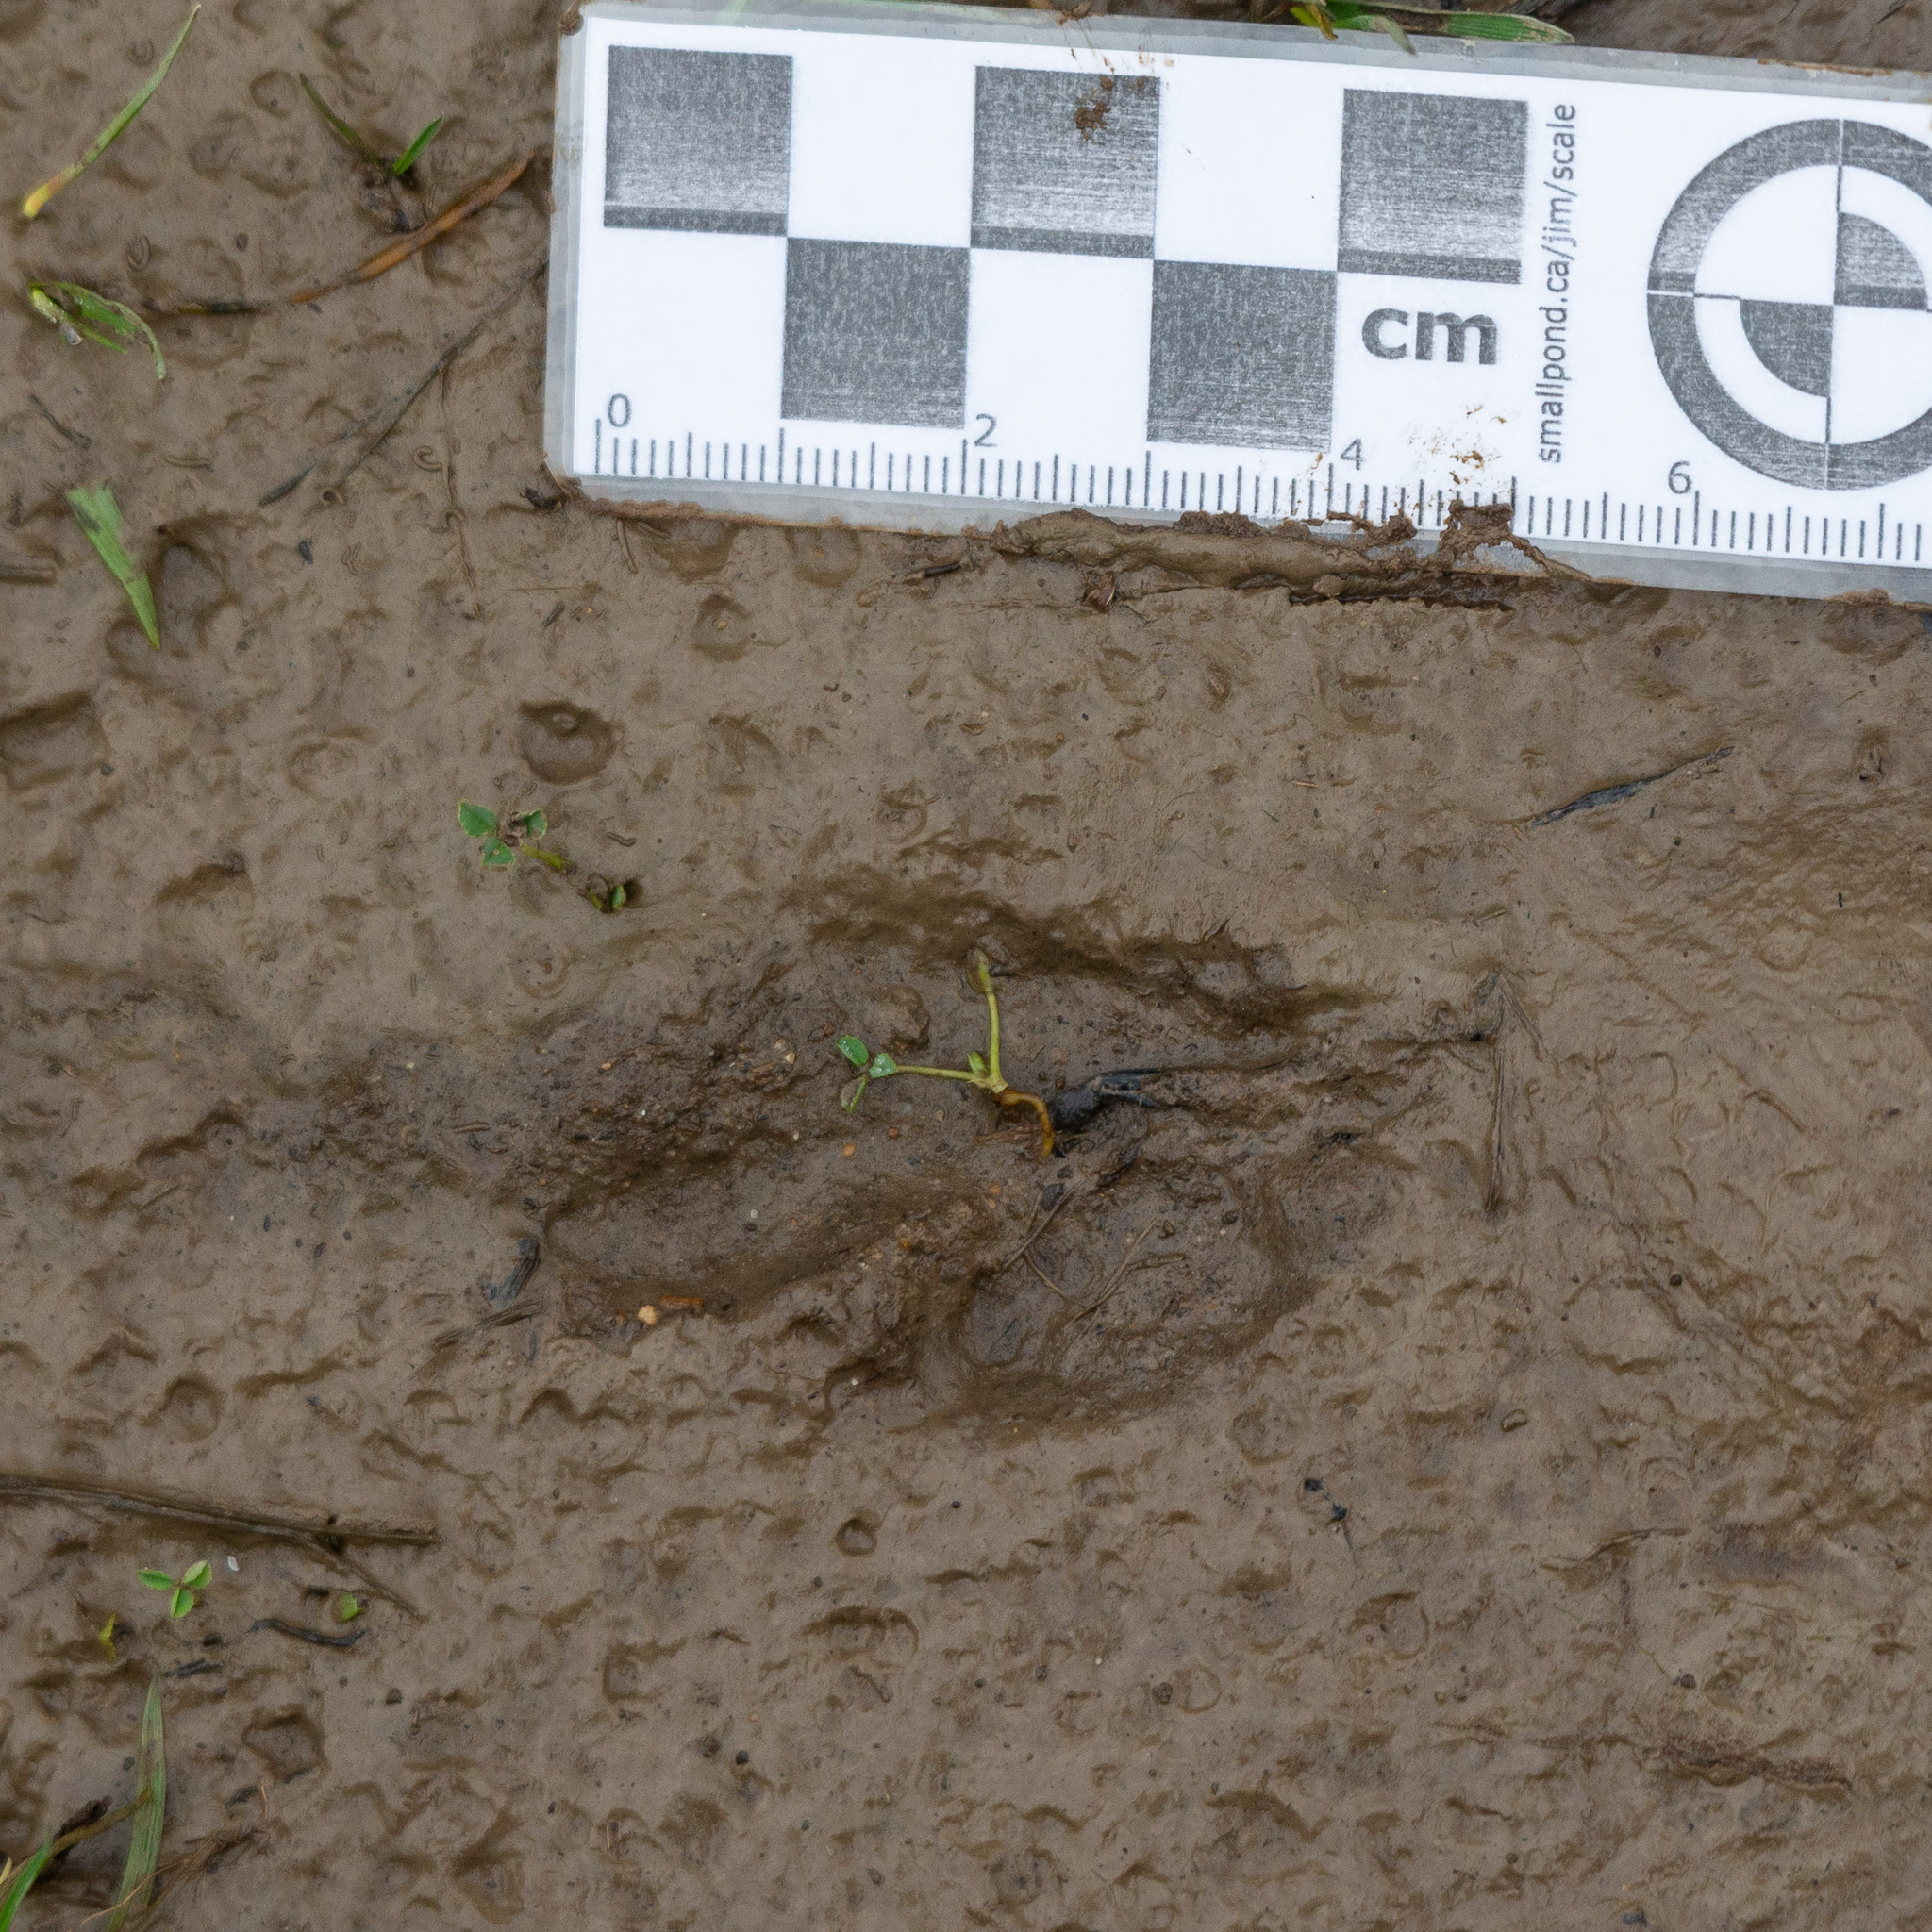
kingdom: Animalia
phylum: Chordata
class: Aves
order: Charadriiformes
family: Burhinidae
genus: Burhinus
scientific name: Burhinus oedicnemus
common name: Eurasian stone-curlew
